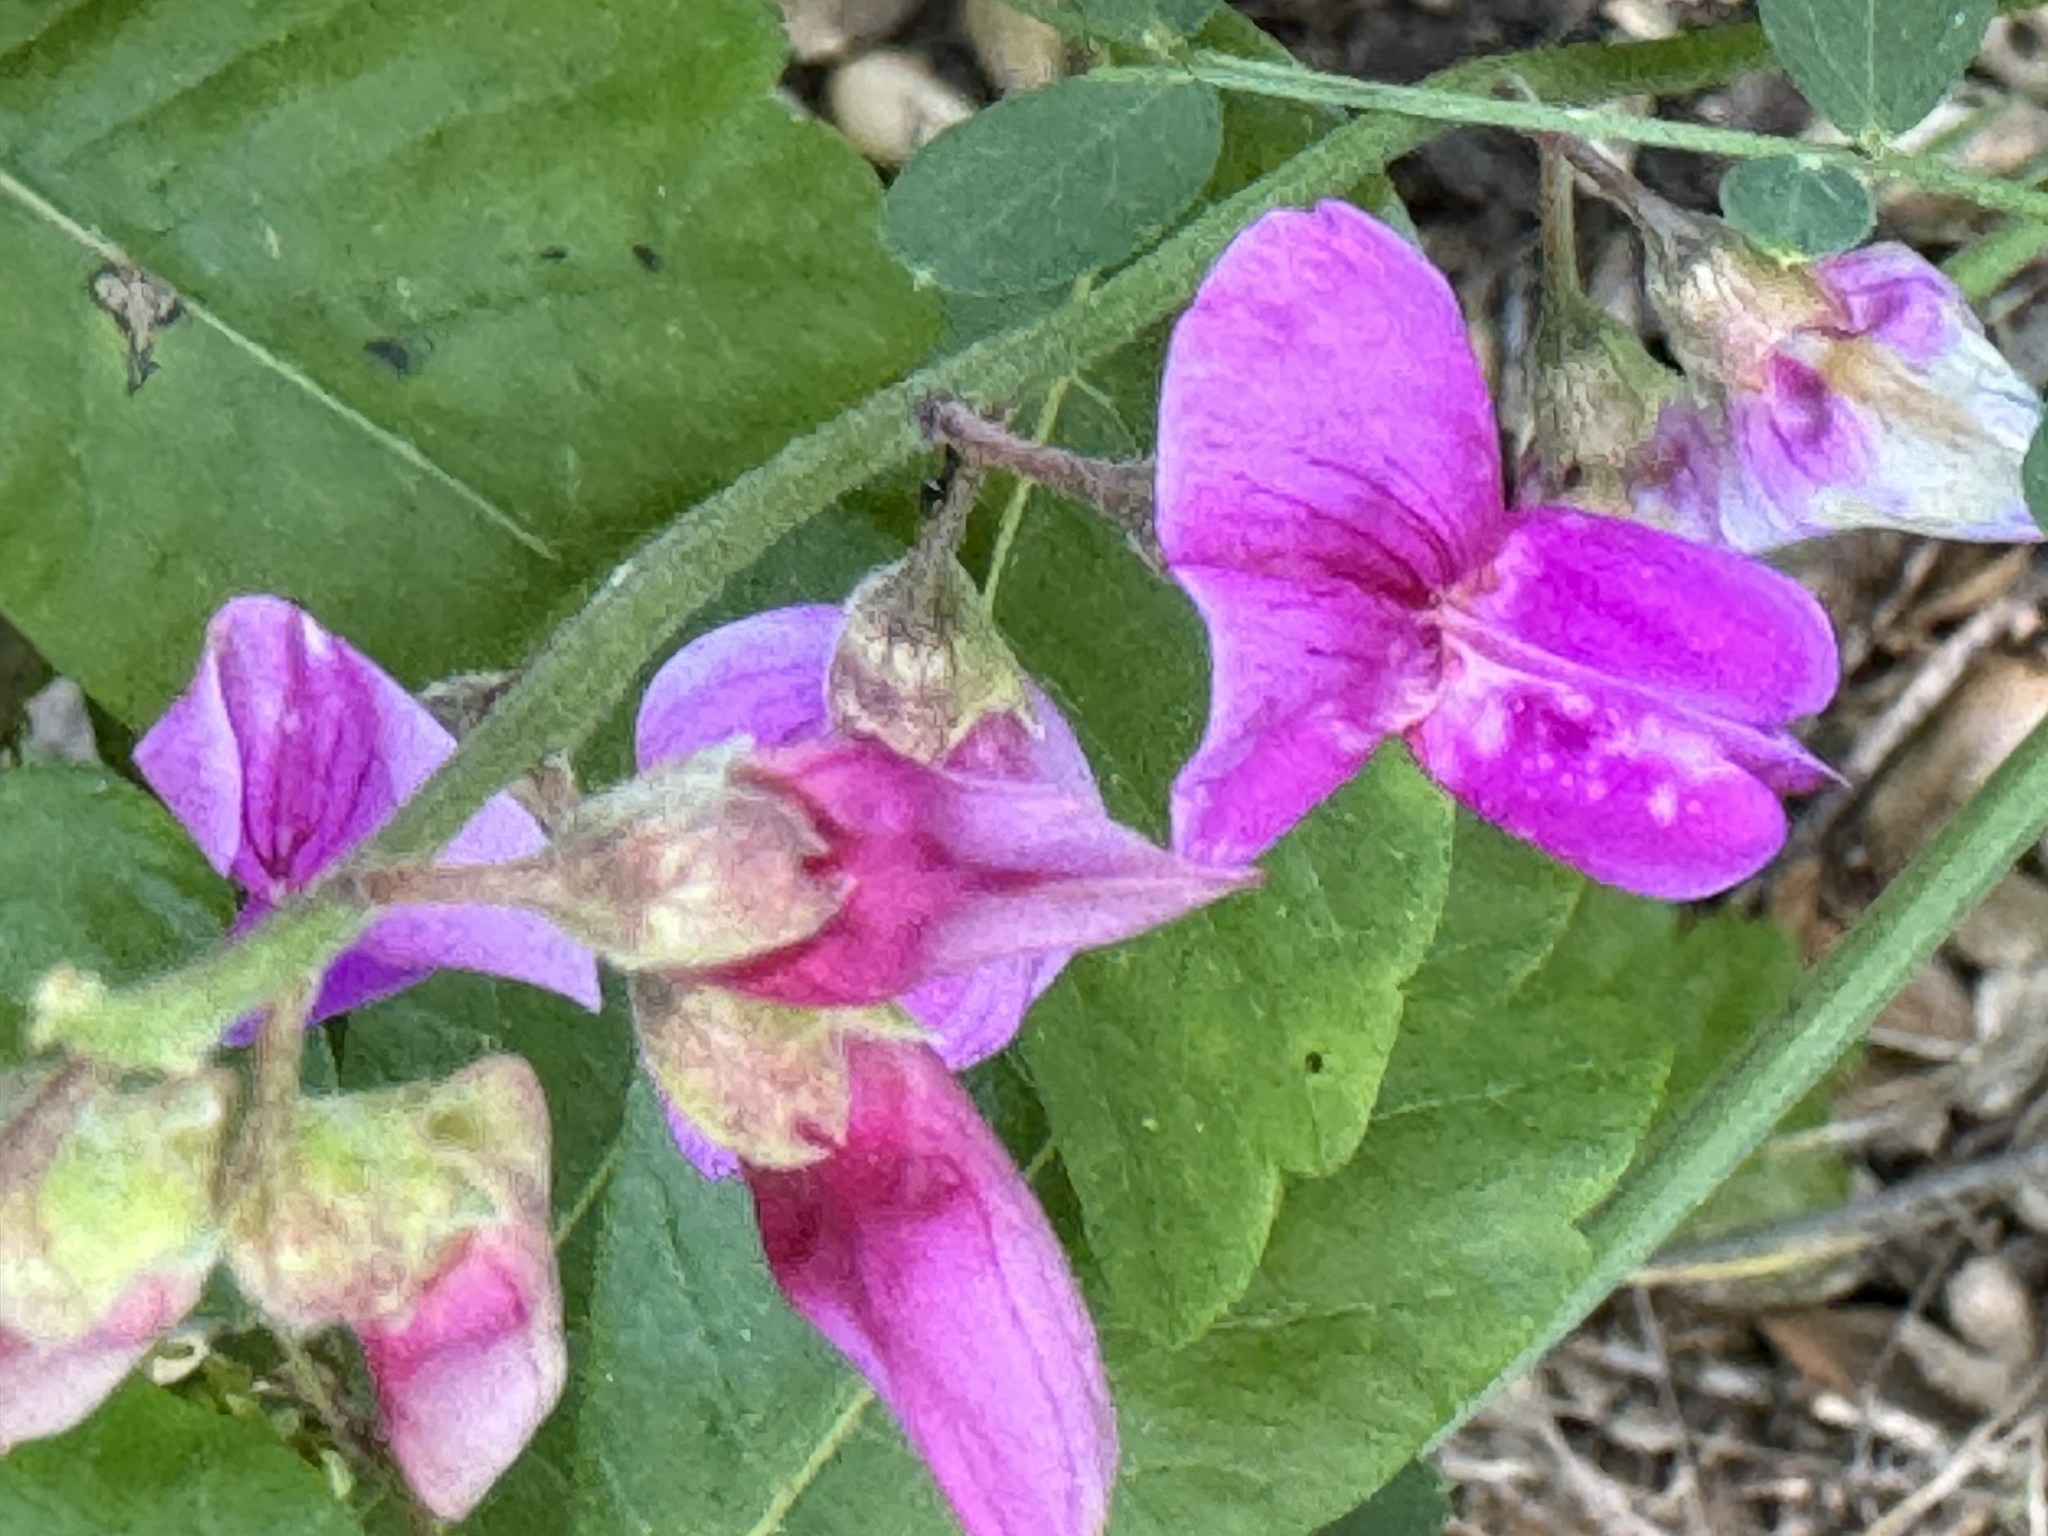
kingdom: Plantae
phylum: Tracheophyta
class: Magnoliopsida
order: Fabales
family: Fabaceae
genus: Lathyrus
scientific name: Lathyrus vestitus
